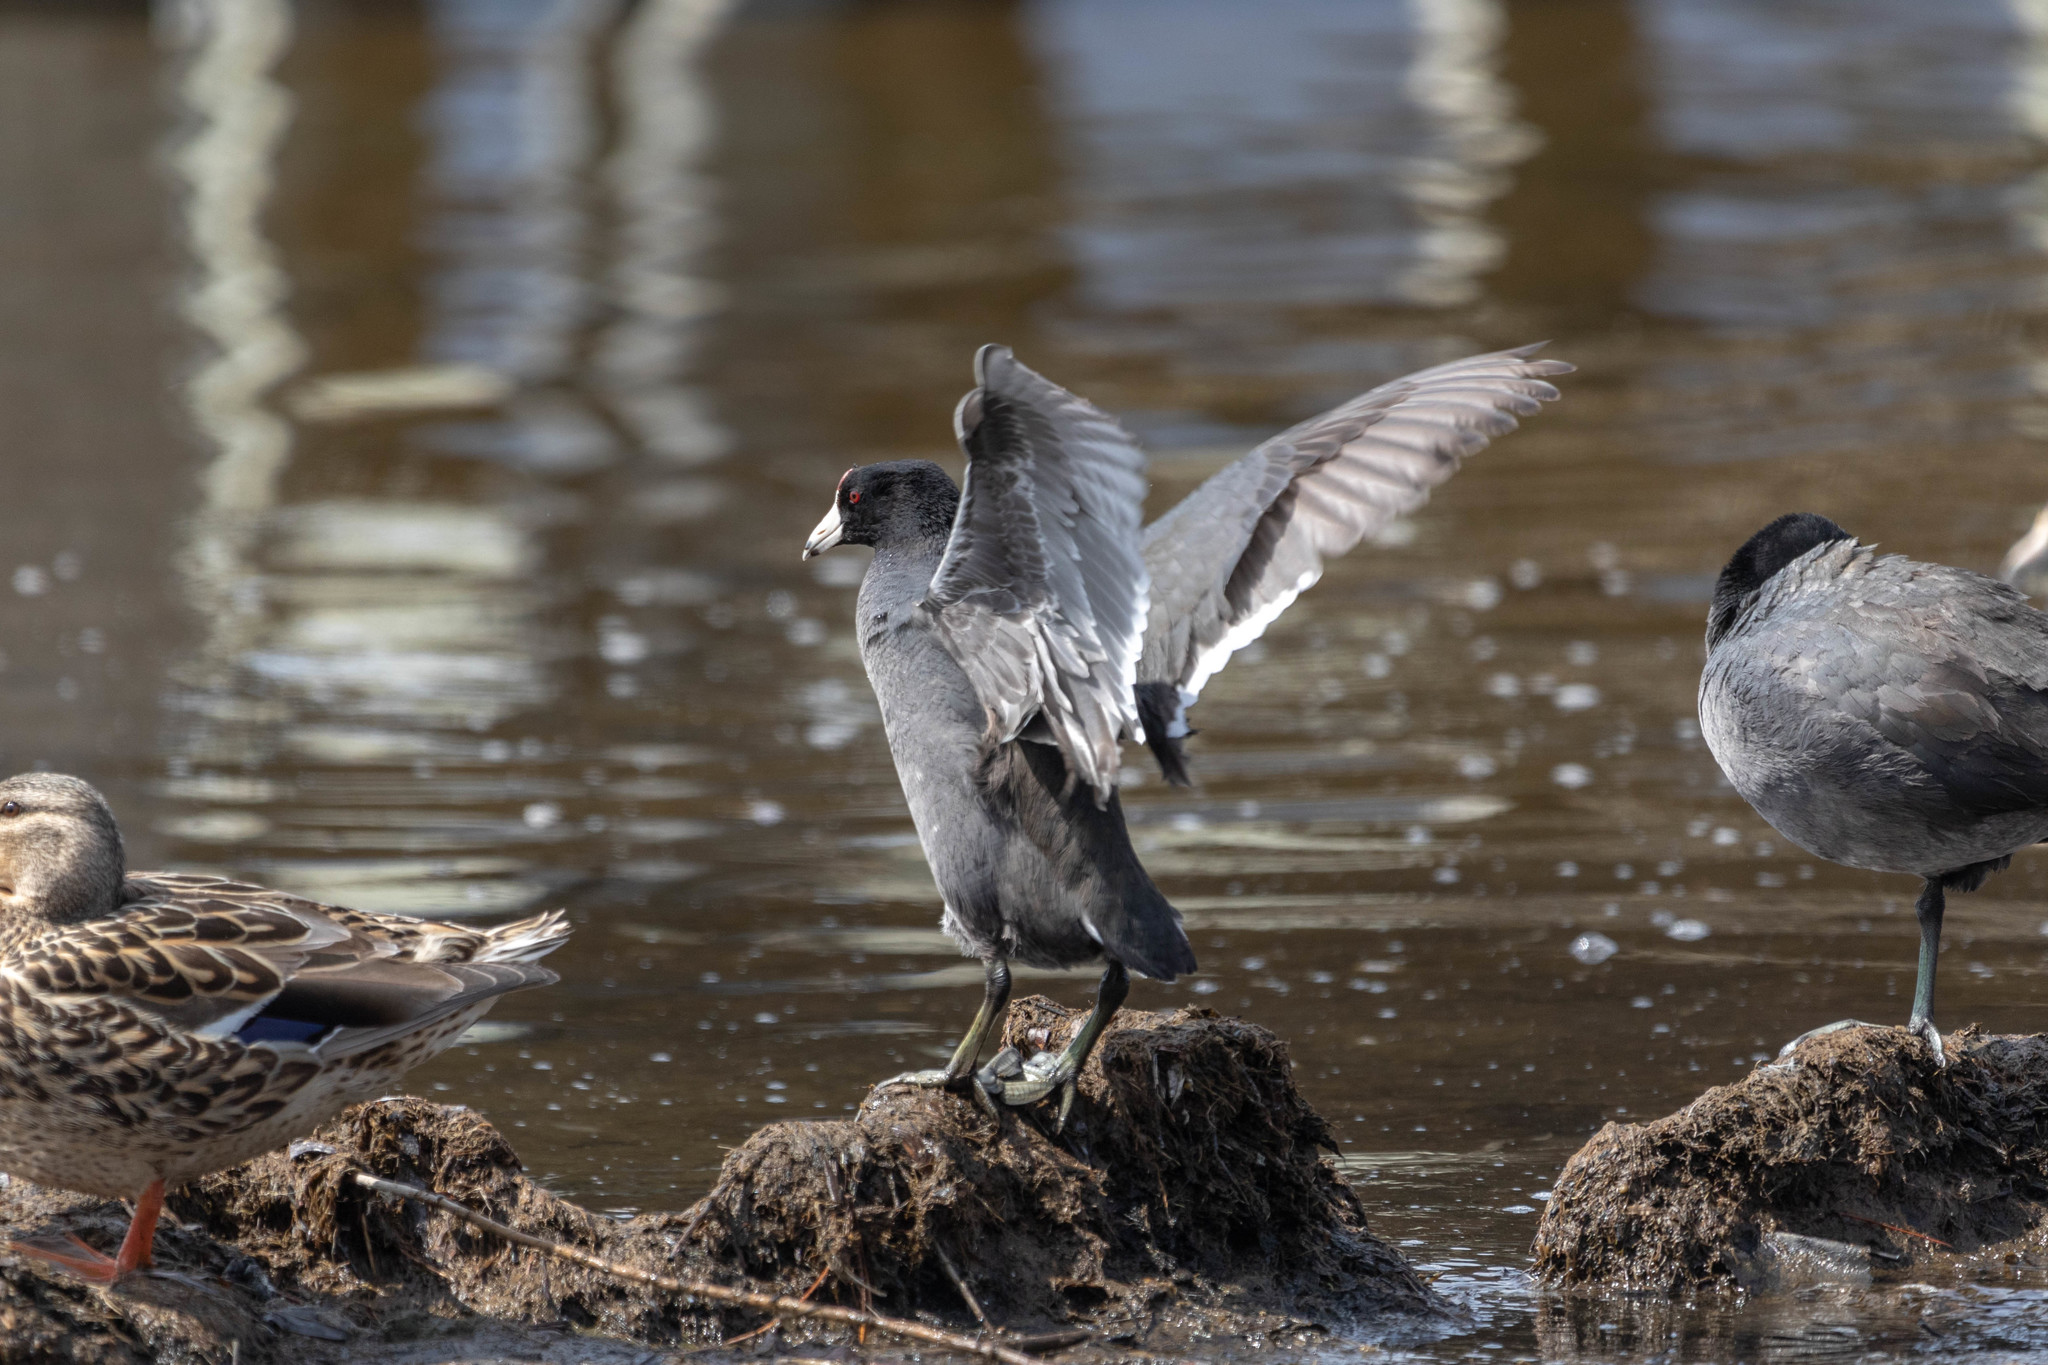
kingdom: Animalia
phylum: Chordata
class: Aves
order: Gruiformes
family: Rallidae
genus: Fulica
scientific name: Fulica americana
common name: American coot
